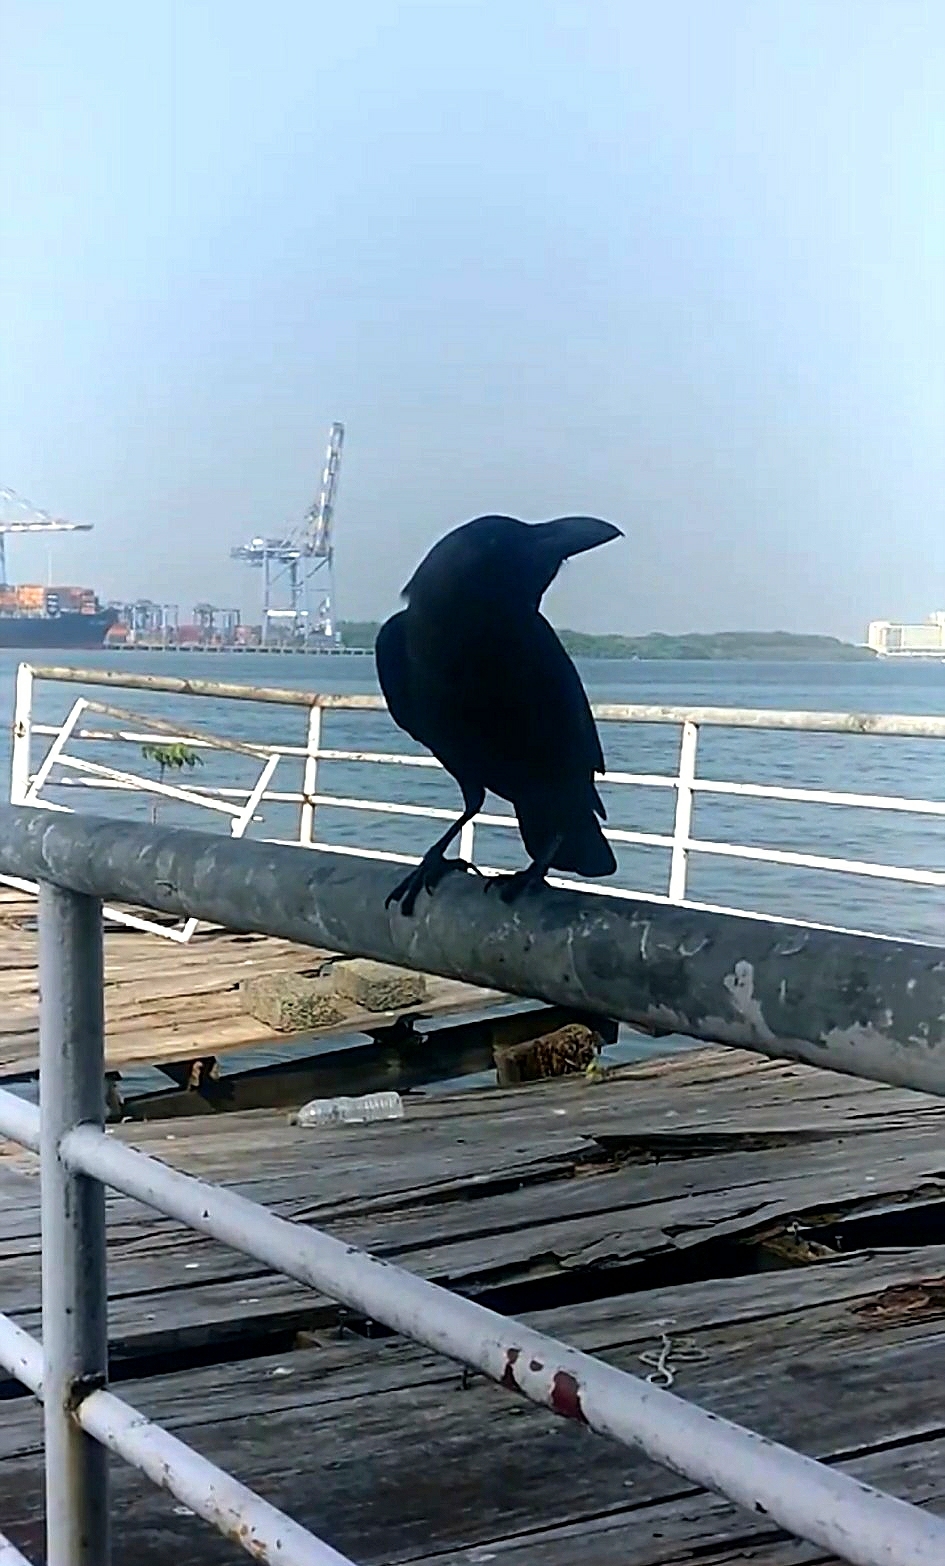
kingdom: Animalia
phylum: Chordata
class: Aves
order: Passeriformes
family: Corvidae
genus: Corvus
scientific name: Corvus macrorhynchos
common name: Large-billed crow
